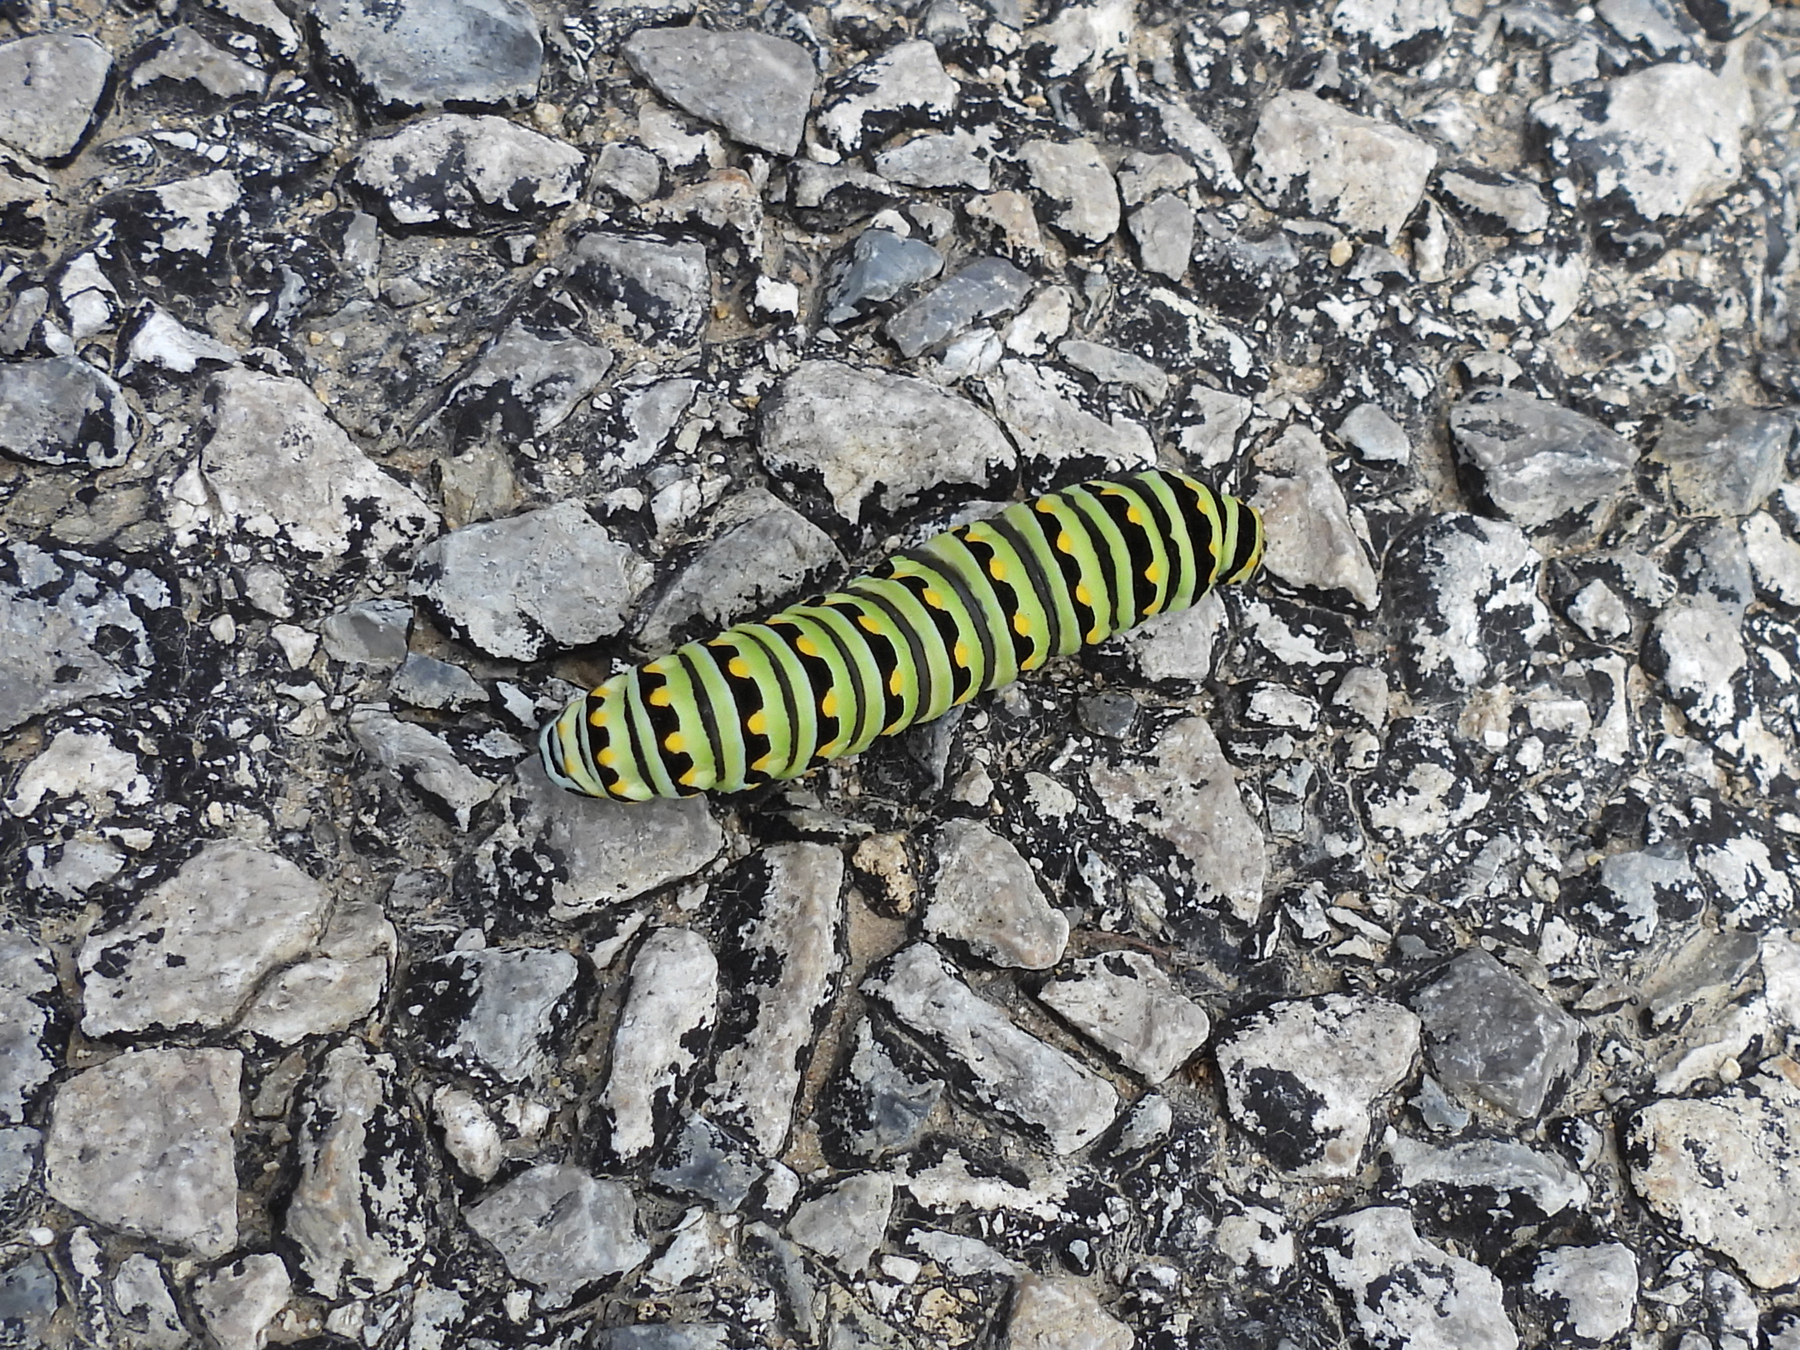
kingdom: Animalia
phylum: Arthropoda
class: Insecta
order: Lepidoptera
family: Papilionidae
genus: Papilio
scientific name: Papilio polyxenes
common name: Black swallowtail
